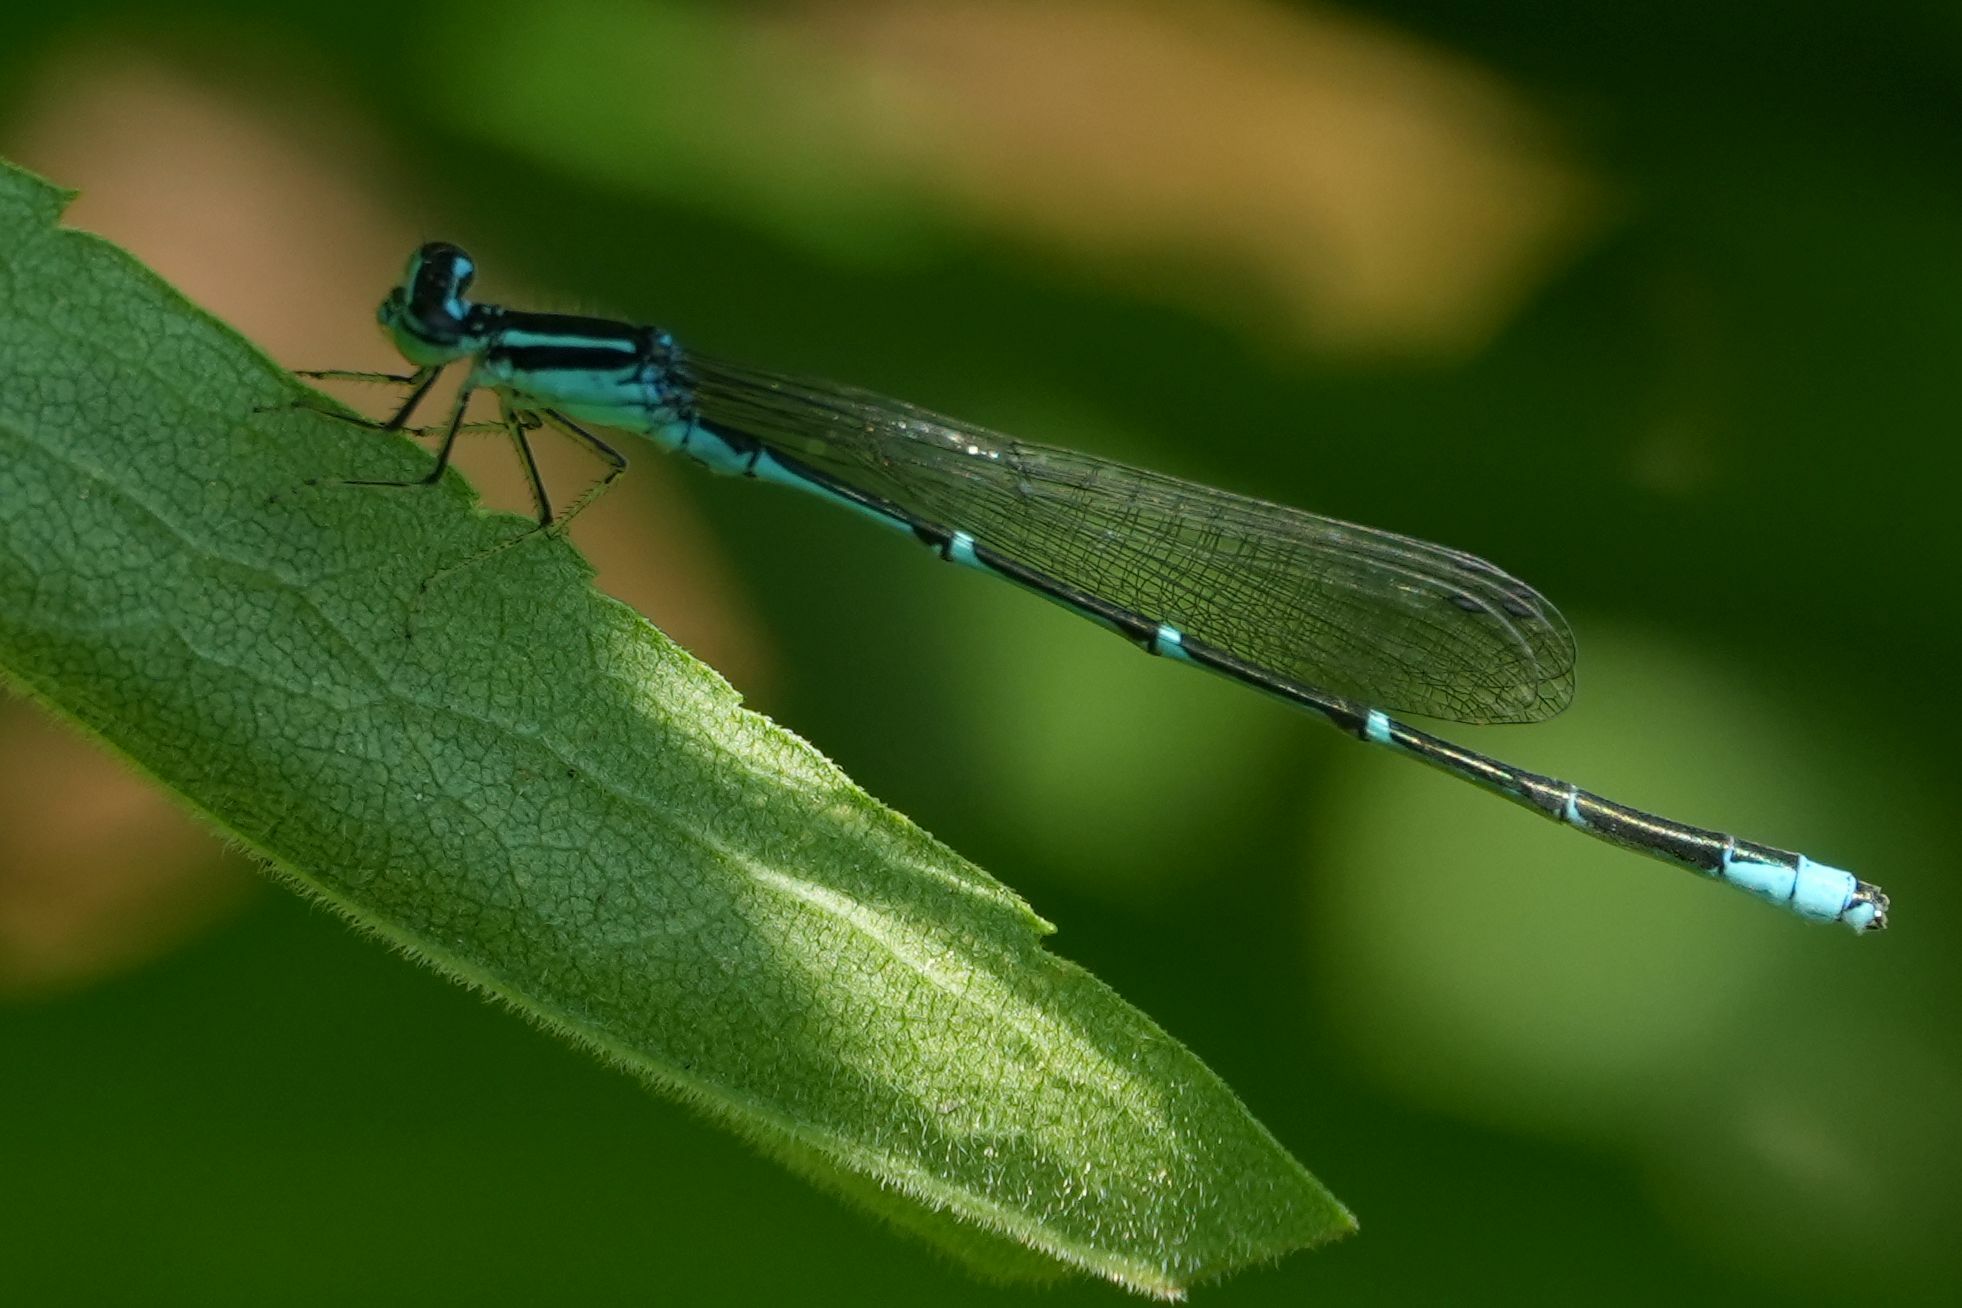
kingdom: Animalia
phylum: Arthropoda
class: Insecta
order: Odonata
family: Coenagrionidae
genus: Enallagma
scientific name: Enallagma exsulans
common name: Stream bluet
